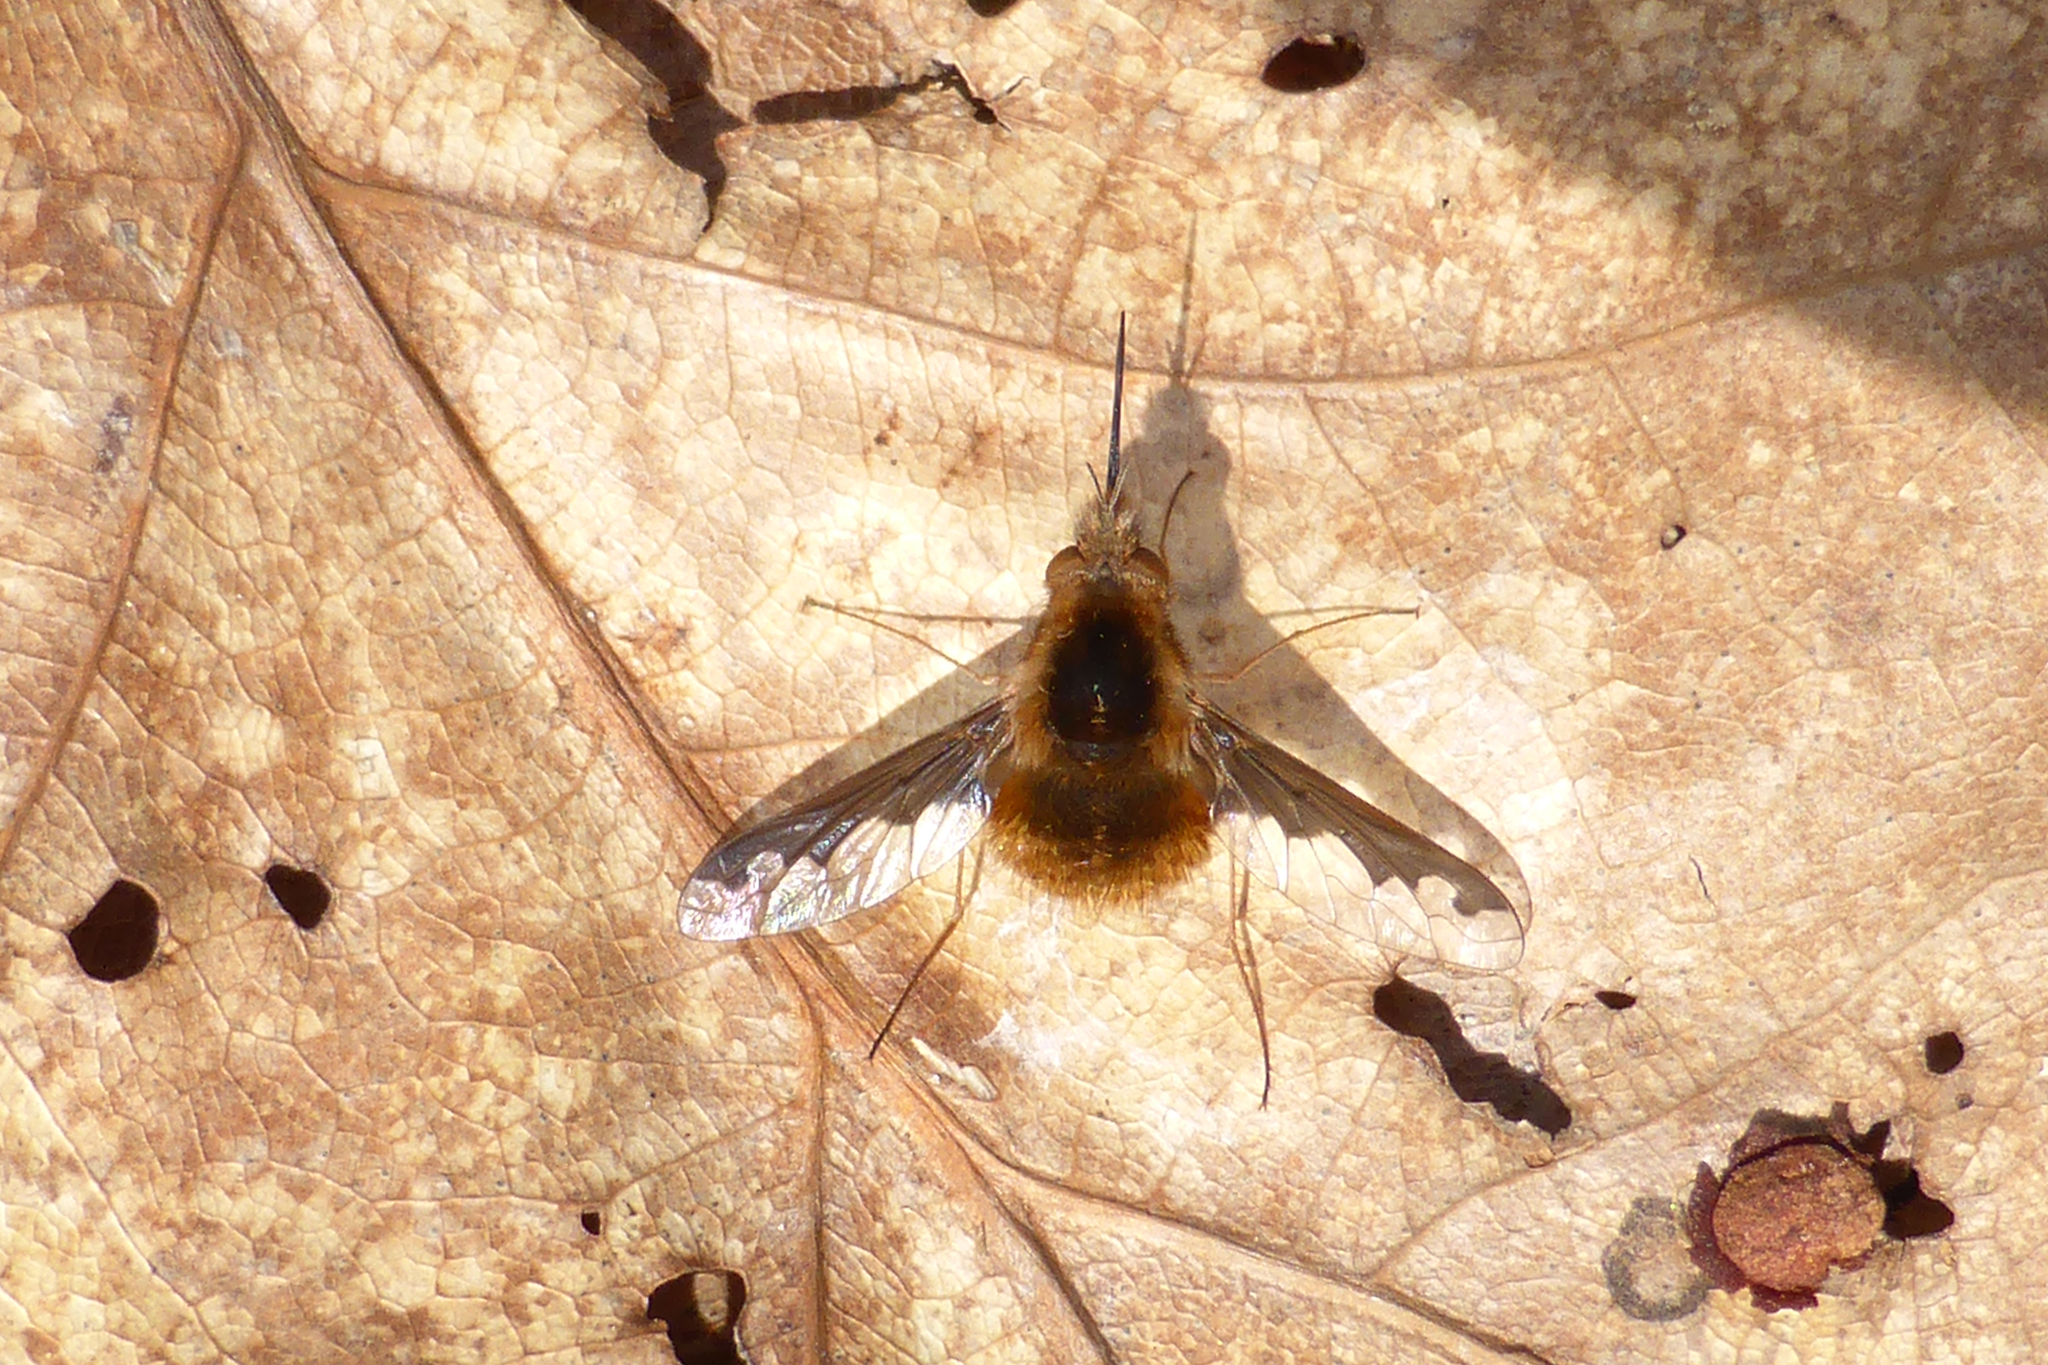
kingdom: Animalia
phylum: Arthropoda
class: Insecta
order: Diptera
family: Bombyliidae
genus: Bombylius
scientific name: Bombylius major
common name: Bee fly
